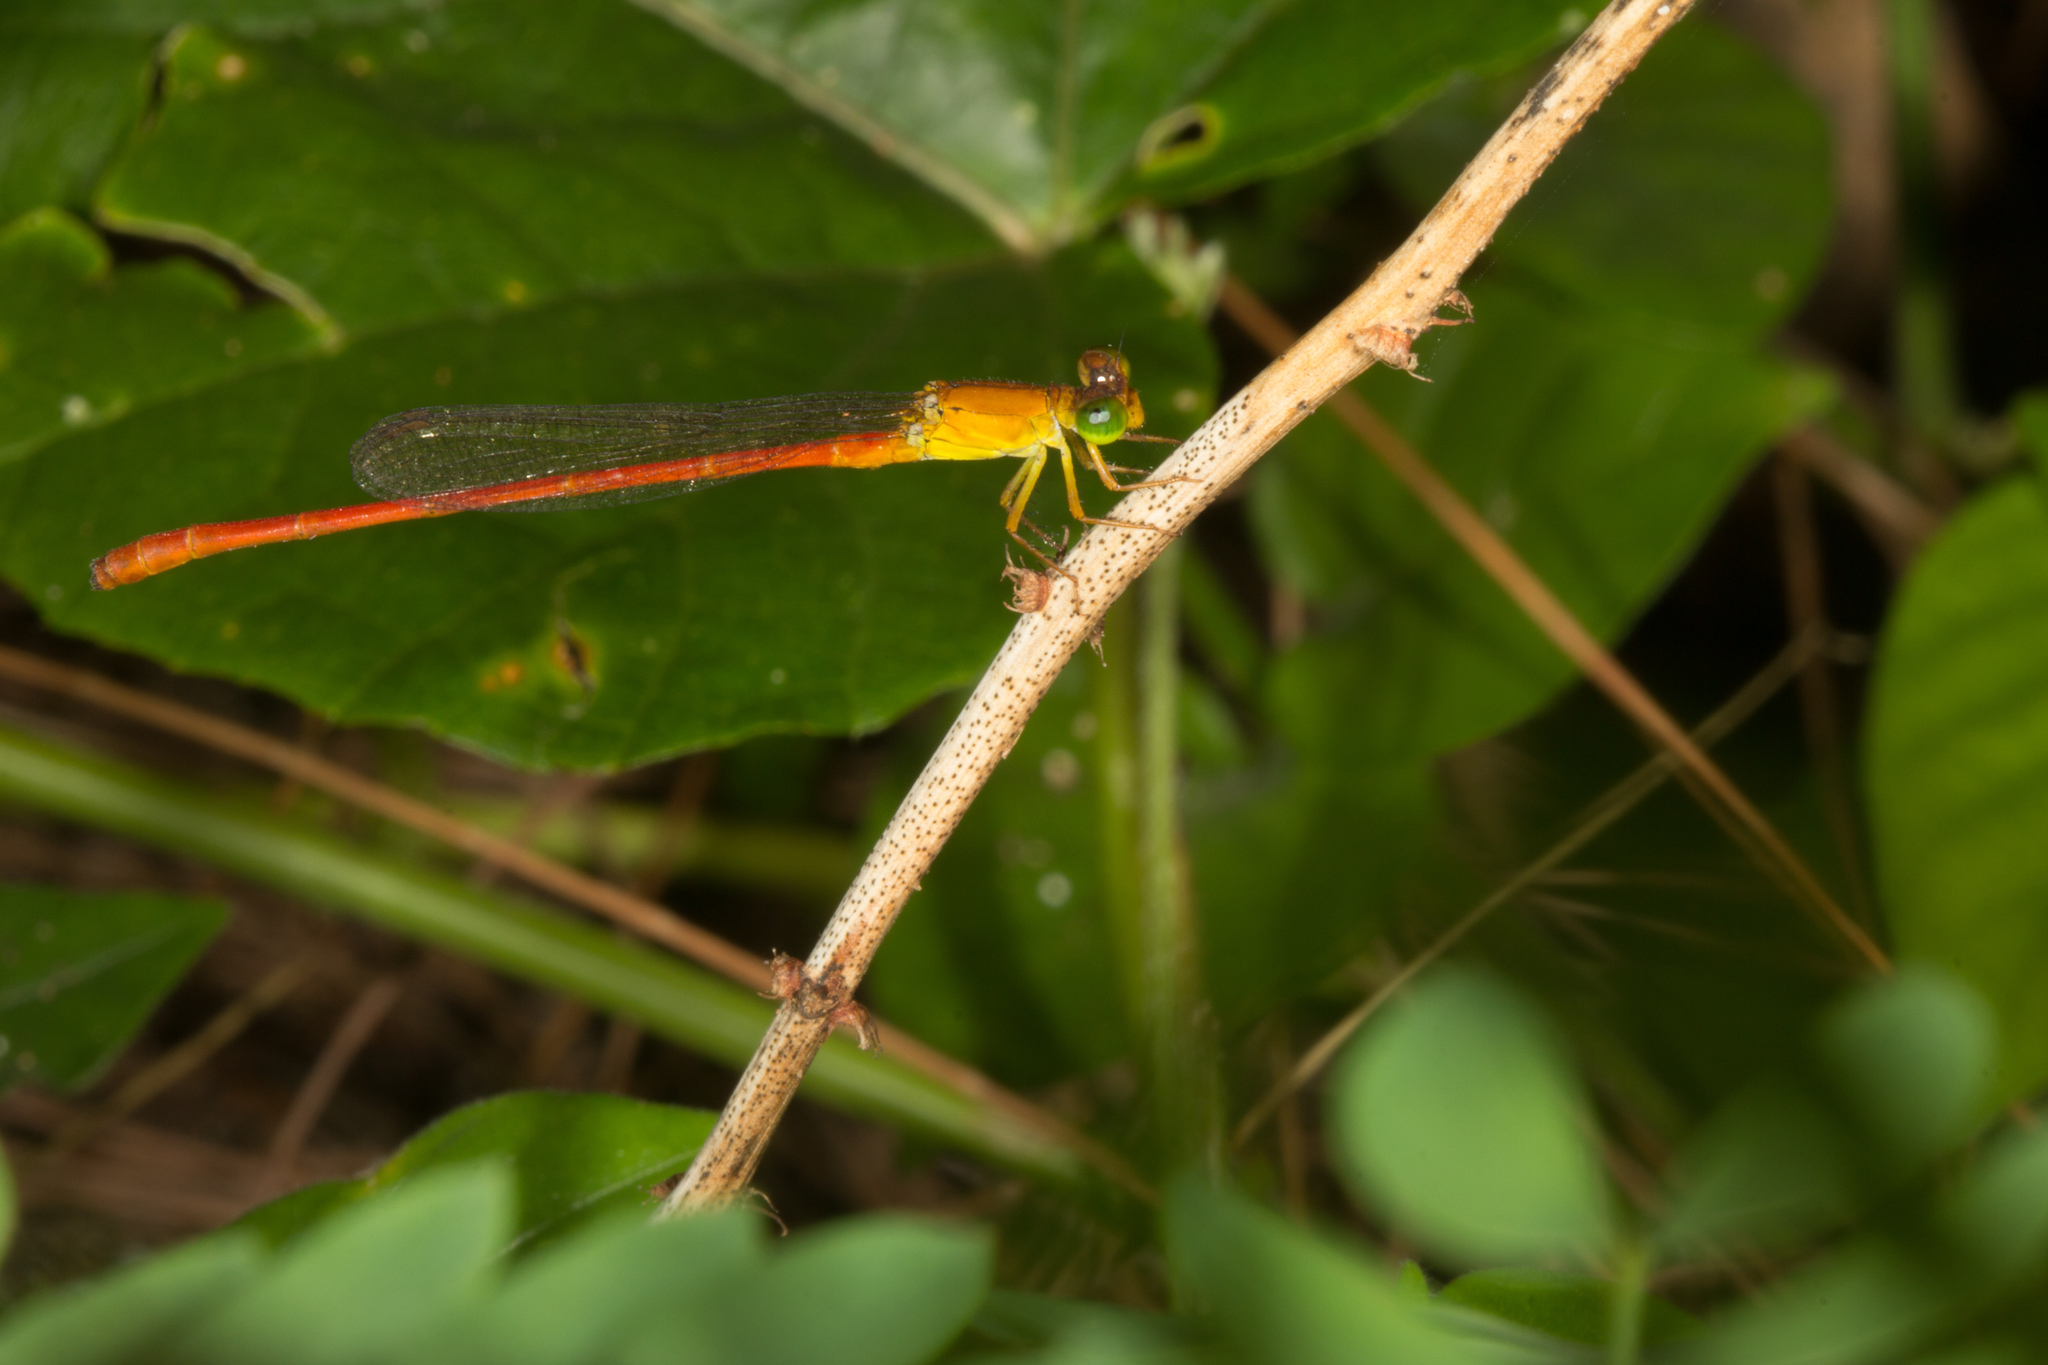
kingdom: Animalia
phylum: Arthropoda
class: Insecta
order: Odonata
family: Coenagrionidae
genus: Ceriagrion
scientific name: Ceriagrion glabrum
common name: Common pond damsel
